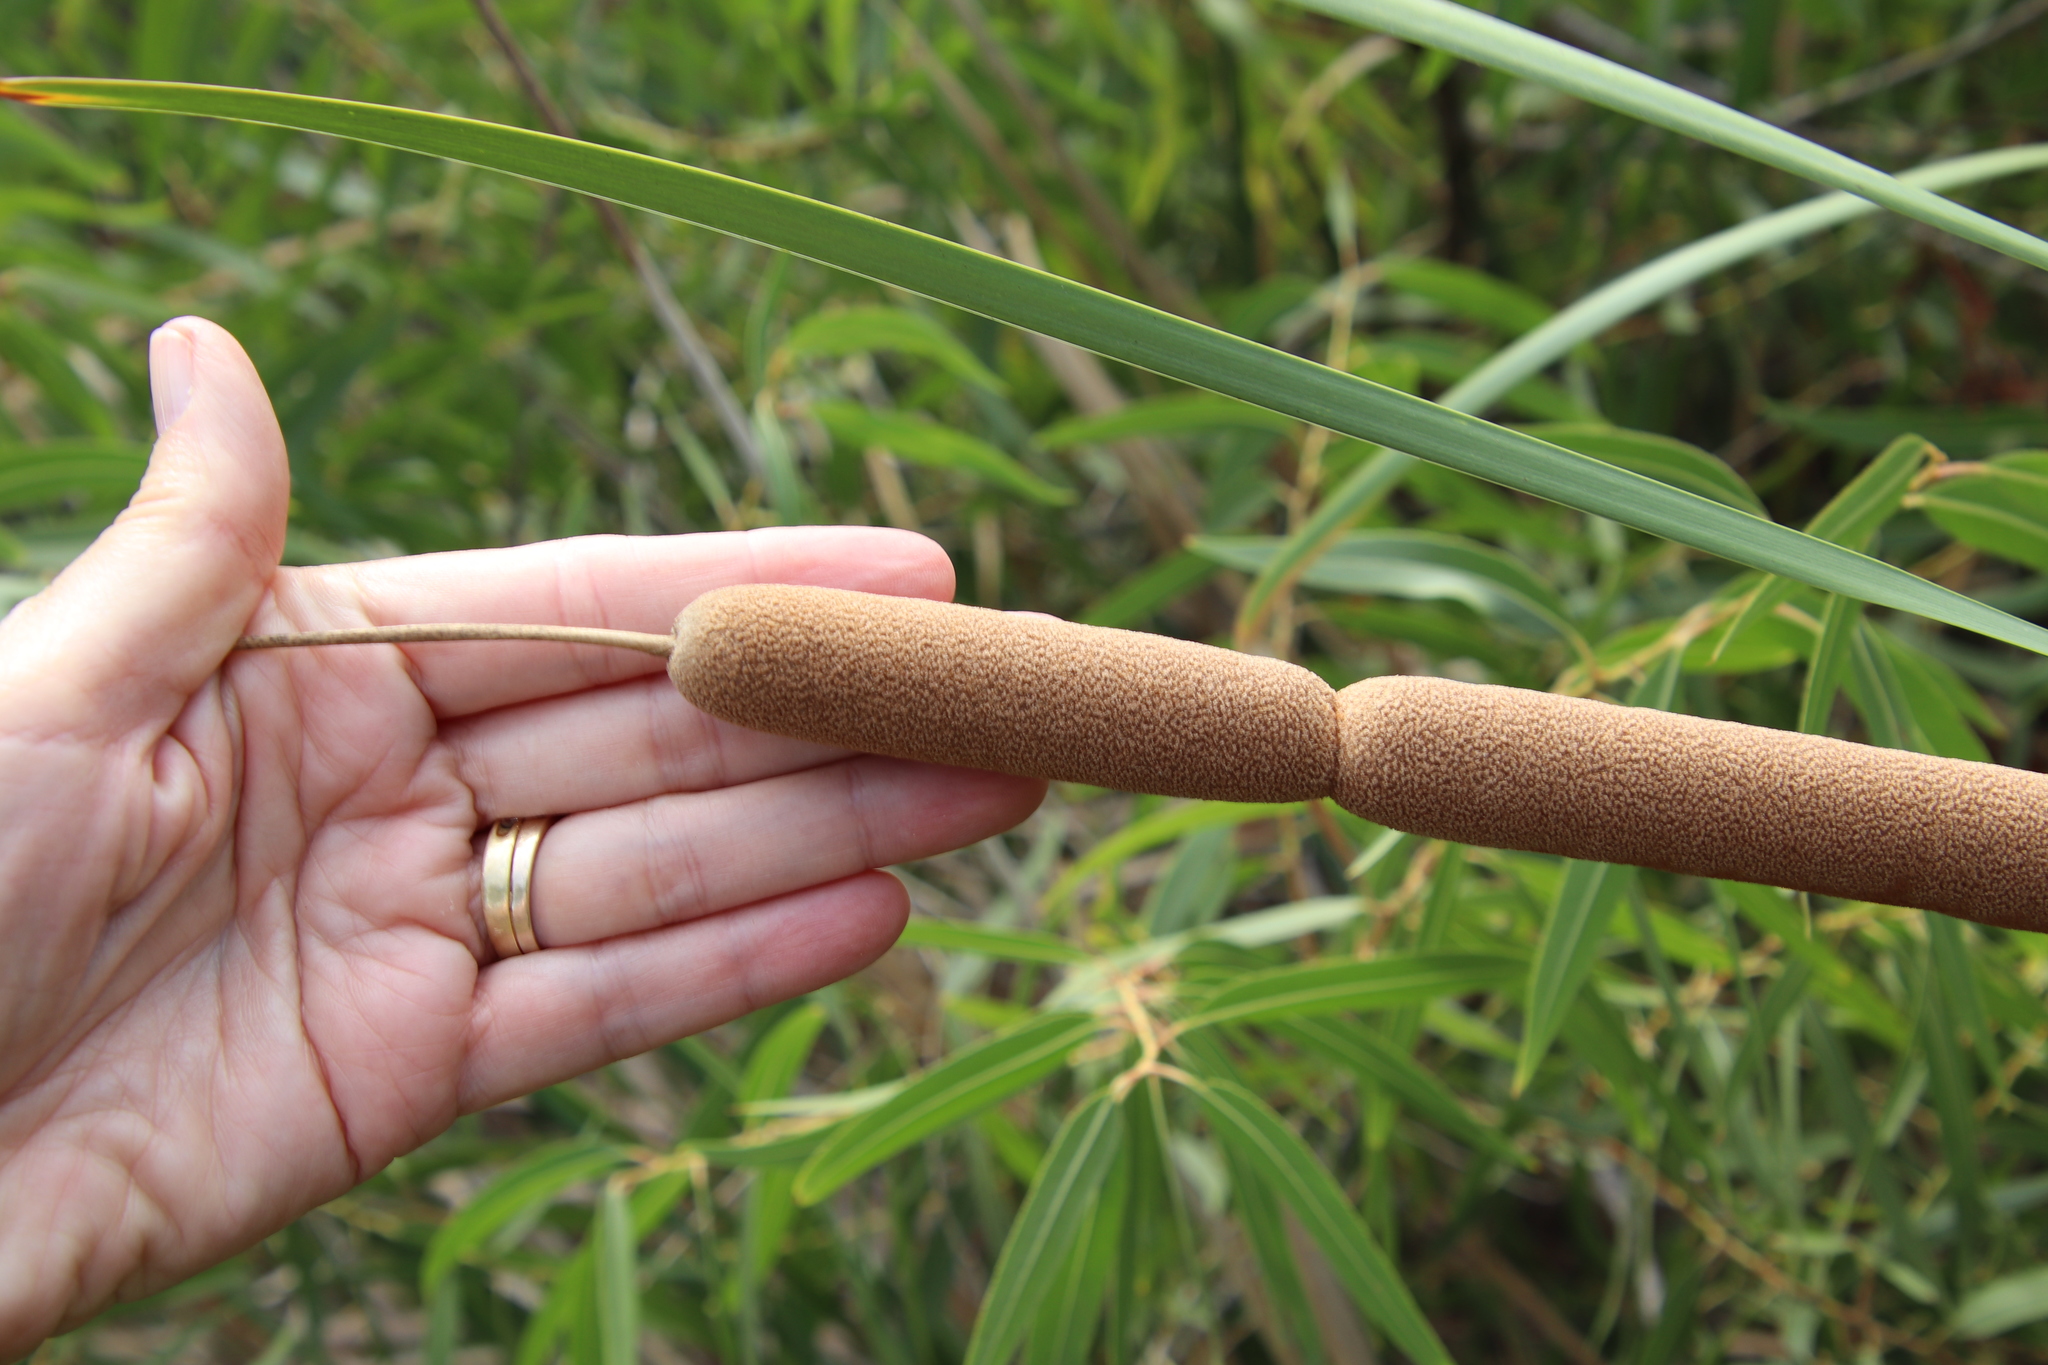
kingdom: Plantae
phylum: Tracheophyta
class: Liliopsida
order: Poales
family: Typhaceae
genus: Typha
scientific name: Typha domingensis
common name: Southern cattail
